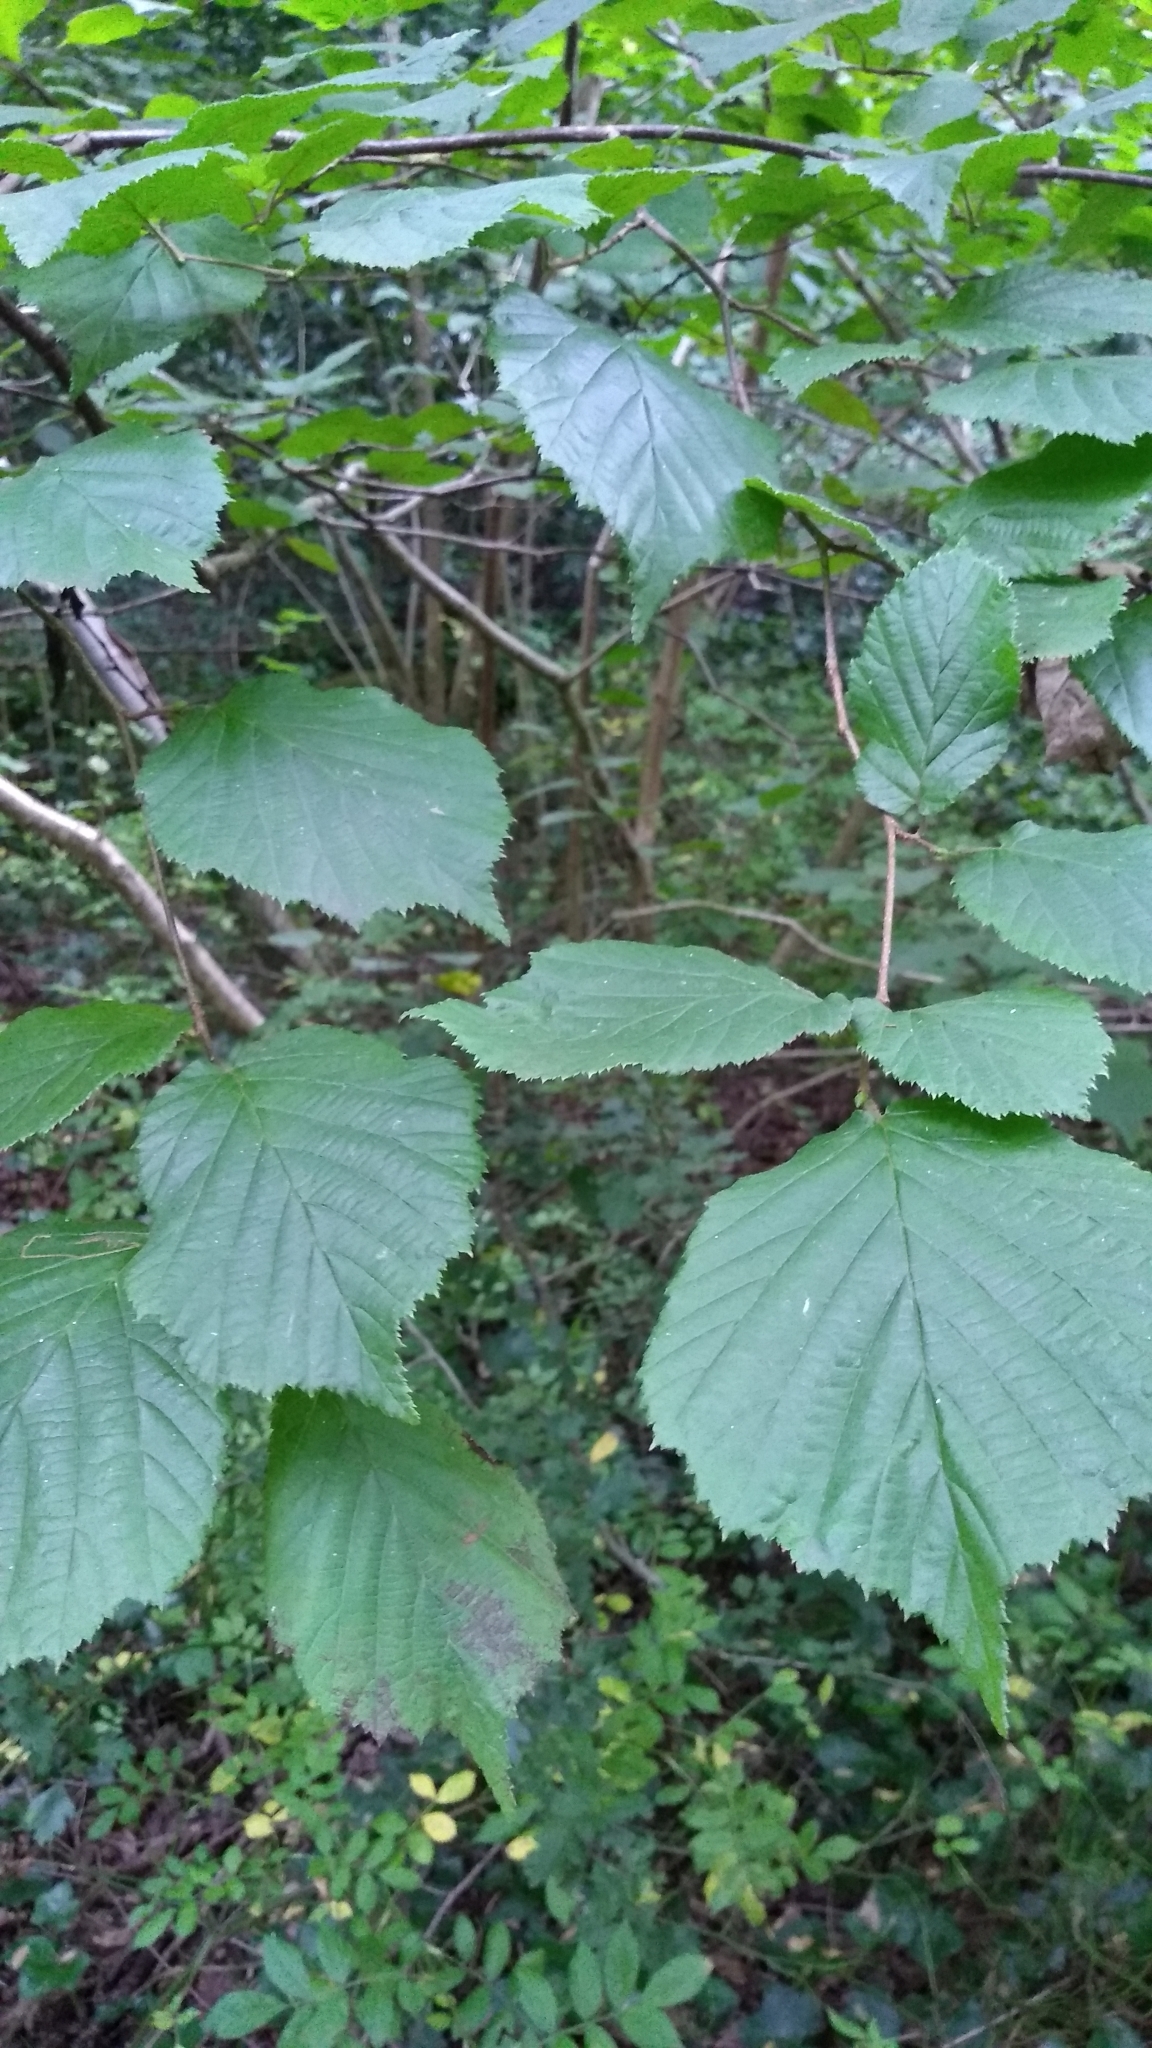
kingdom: Plantae
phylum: Tracheophyta
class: Magnoliopsida
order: Fagales
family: Betulaceae
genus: Corylus
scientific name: Corylus avellana
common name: European hazel
